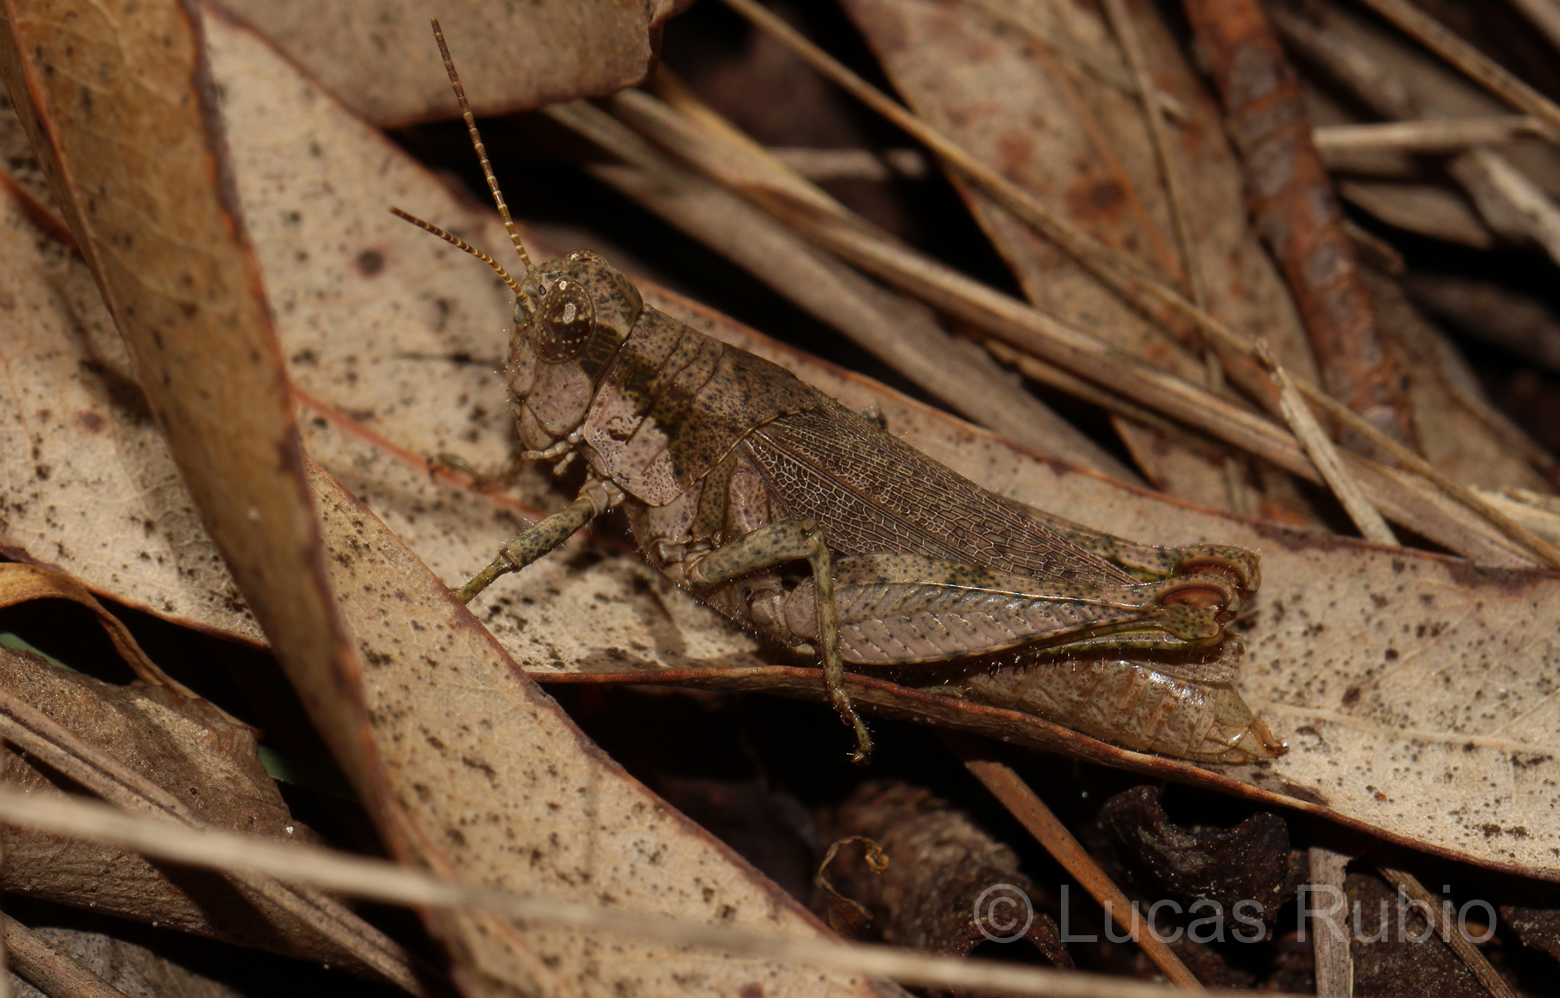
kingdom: Animalia
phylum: Arthropoda
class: Insecta
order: Orthoptera
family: Acrididae
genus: Ronderosia
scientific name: Ronderosia bergii
